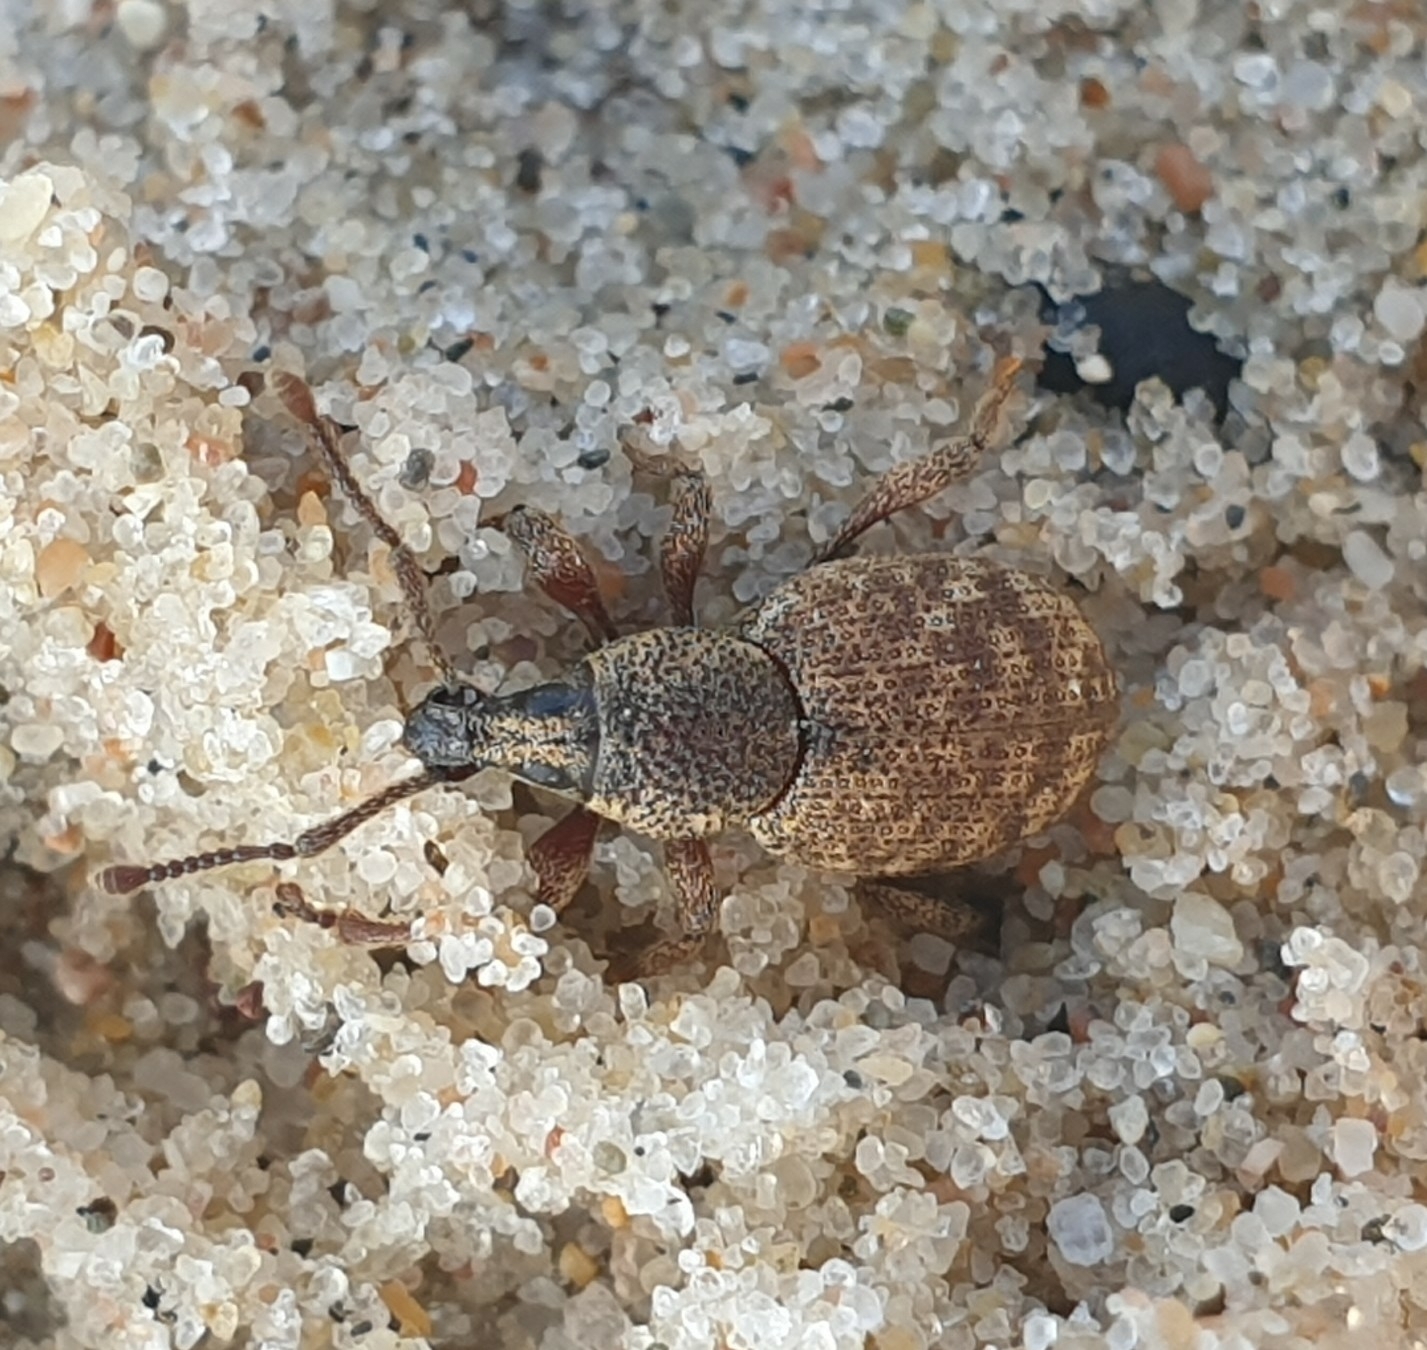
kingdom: Animalia
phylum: Arthropoda
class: Insecta
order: Coleoptera
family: Curculionidae
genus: Otiorhynchus
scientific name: Otiorhynchus singularis
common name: Clay-coloured weevil
